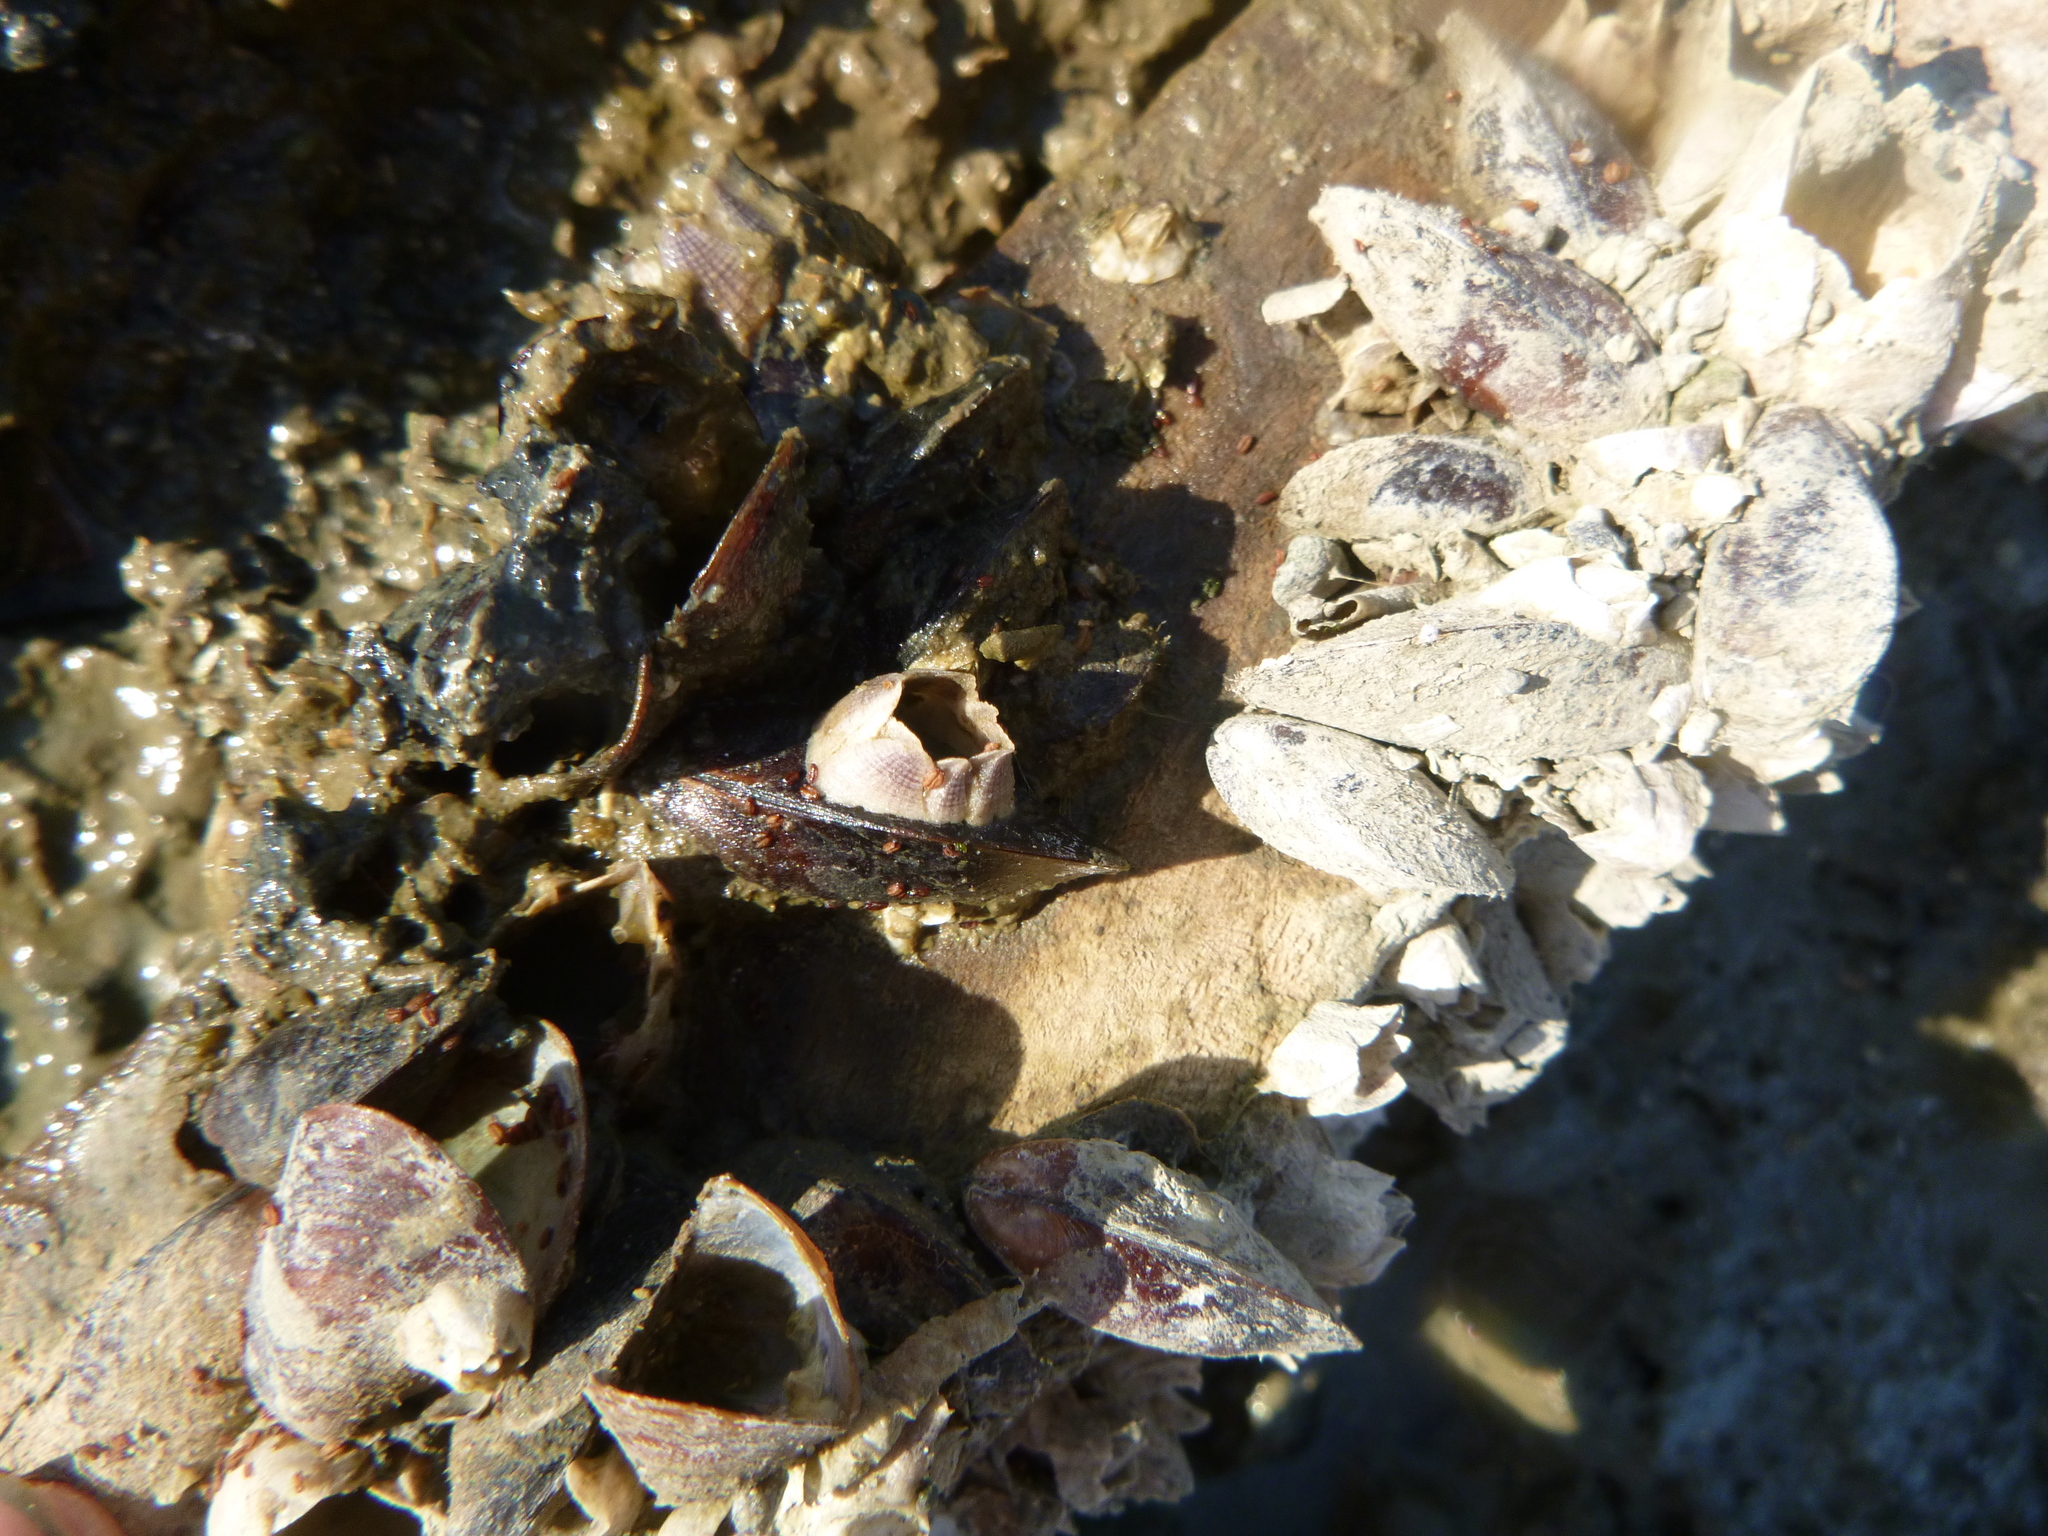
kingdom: Animalia
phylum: Mollusca
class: Bivalvia
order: Mytilida
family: Mytilidae
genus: Xenostrobus
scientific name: Xenostrobus securis
